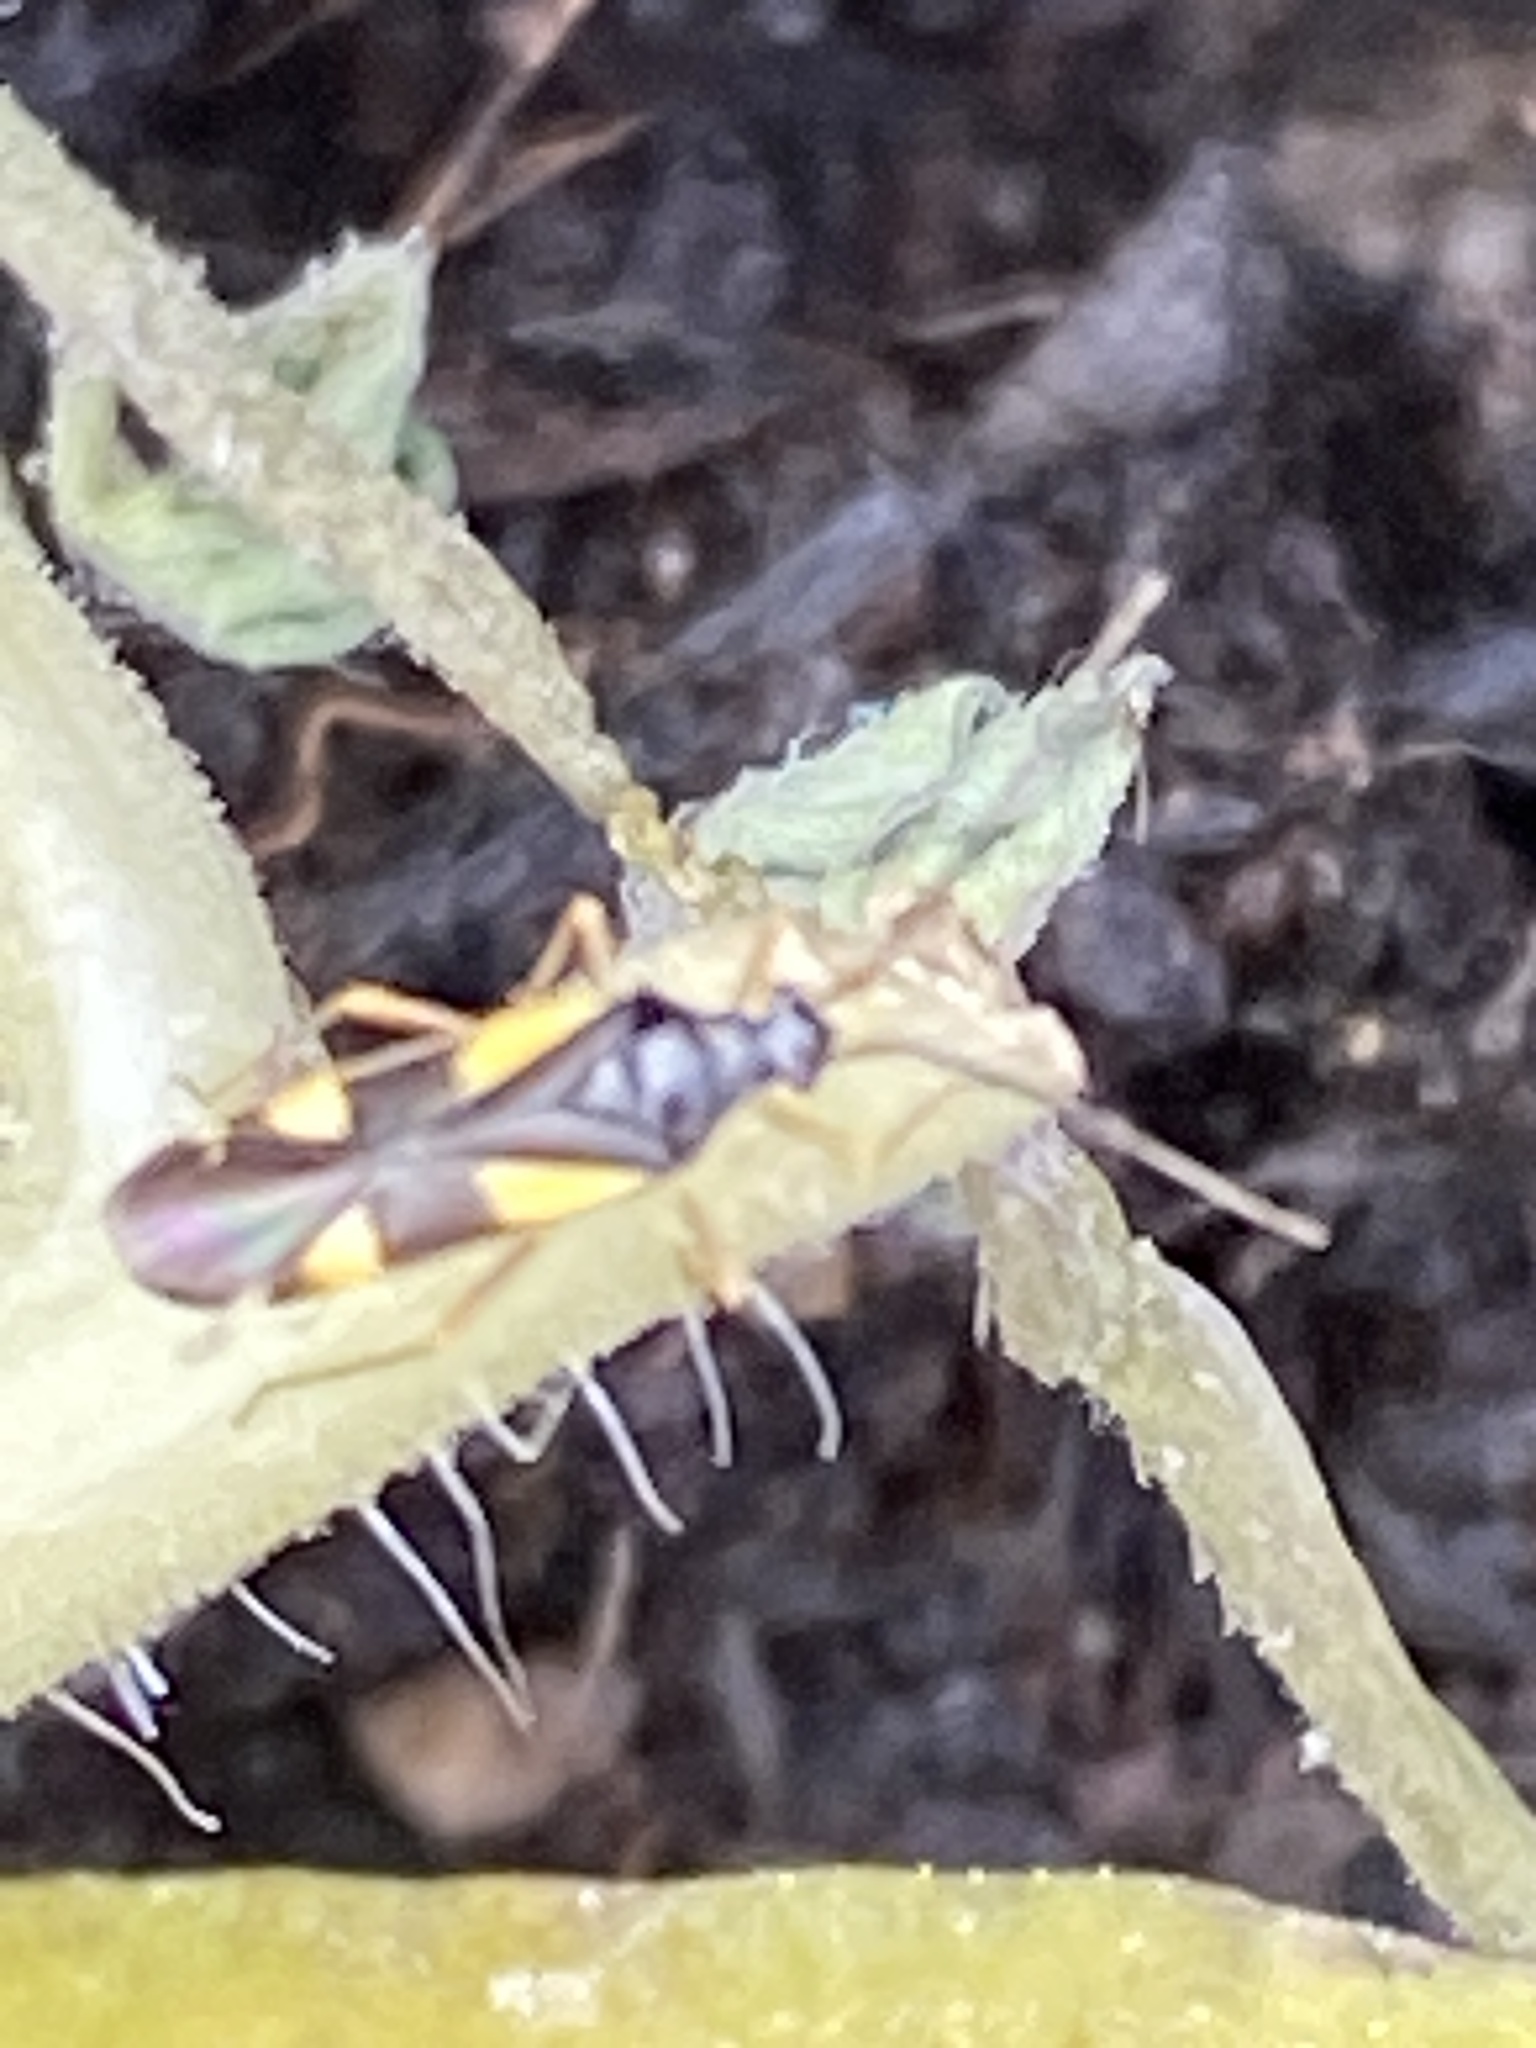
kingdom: Animalia
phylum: Arthropoda
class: Insecta
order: Hemiptera
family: Miridae
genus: Dryophilocoris
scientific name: Dryophilocoris flavoquadrimaculatus
